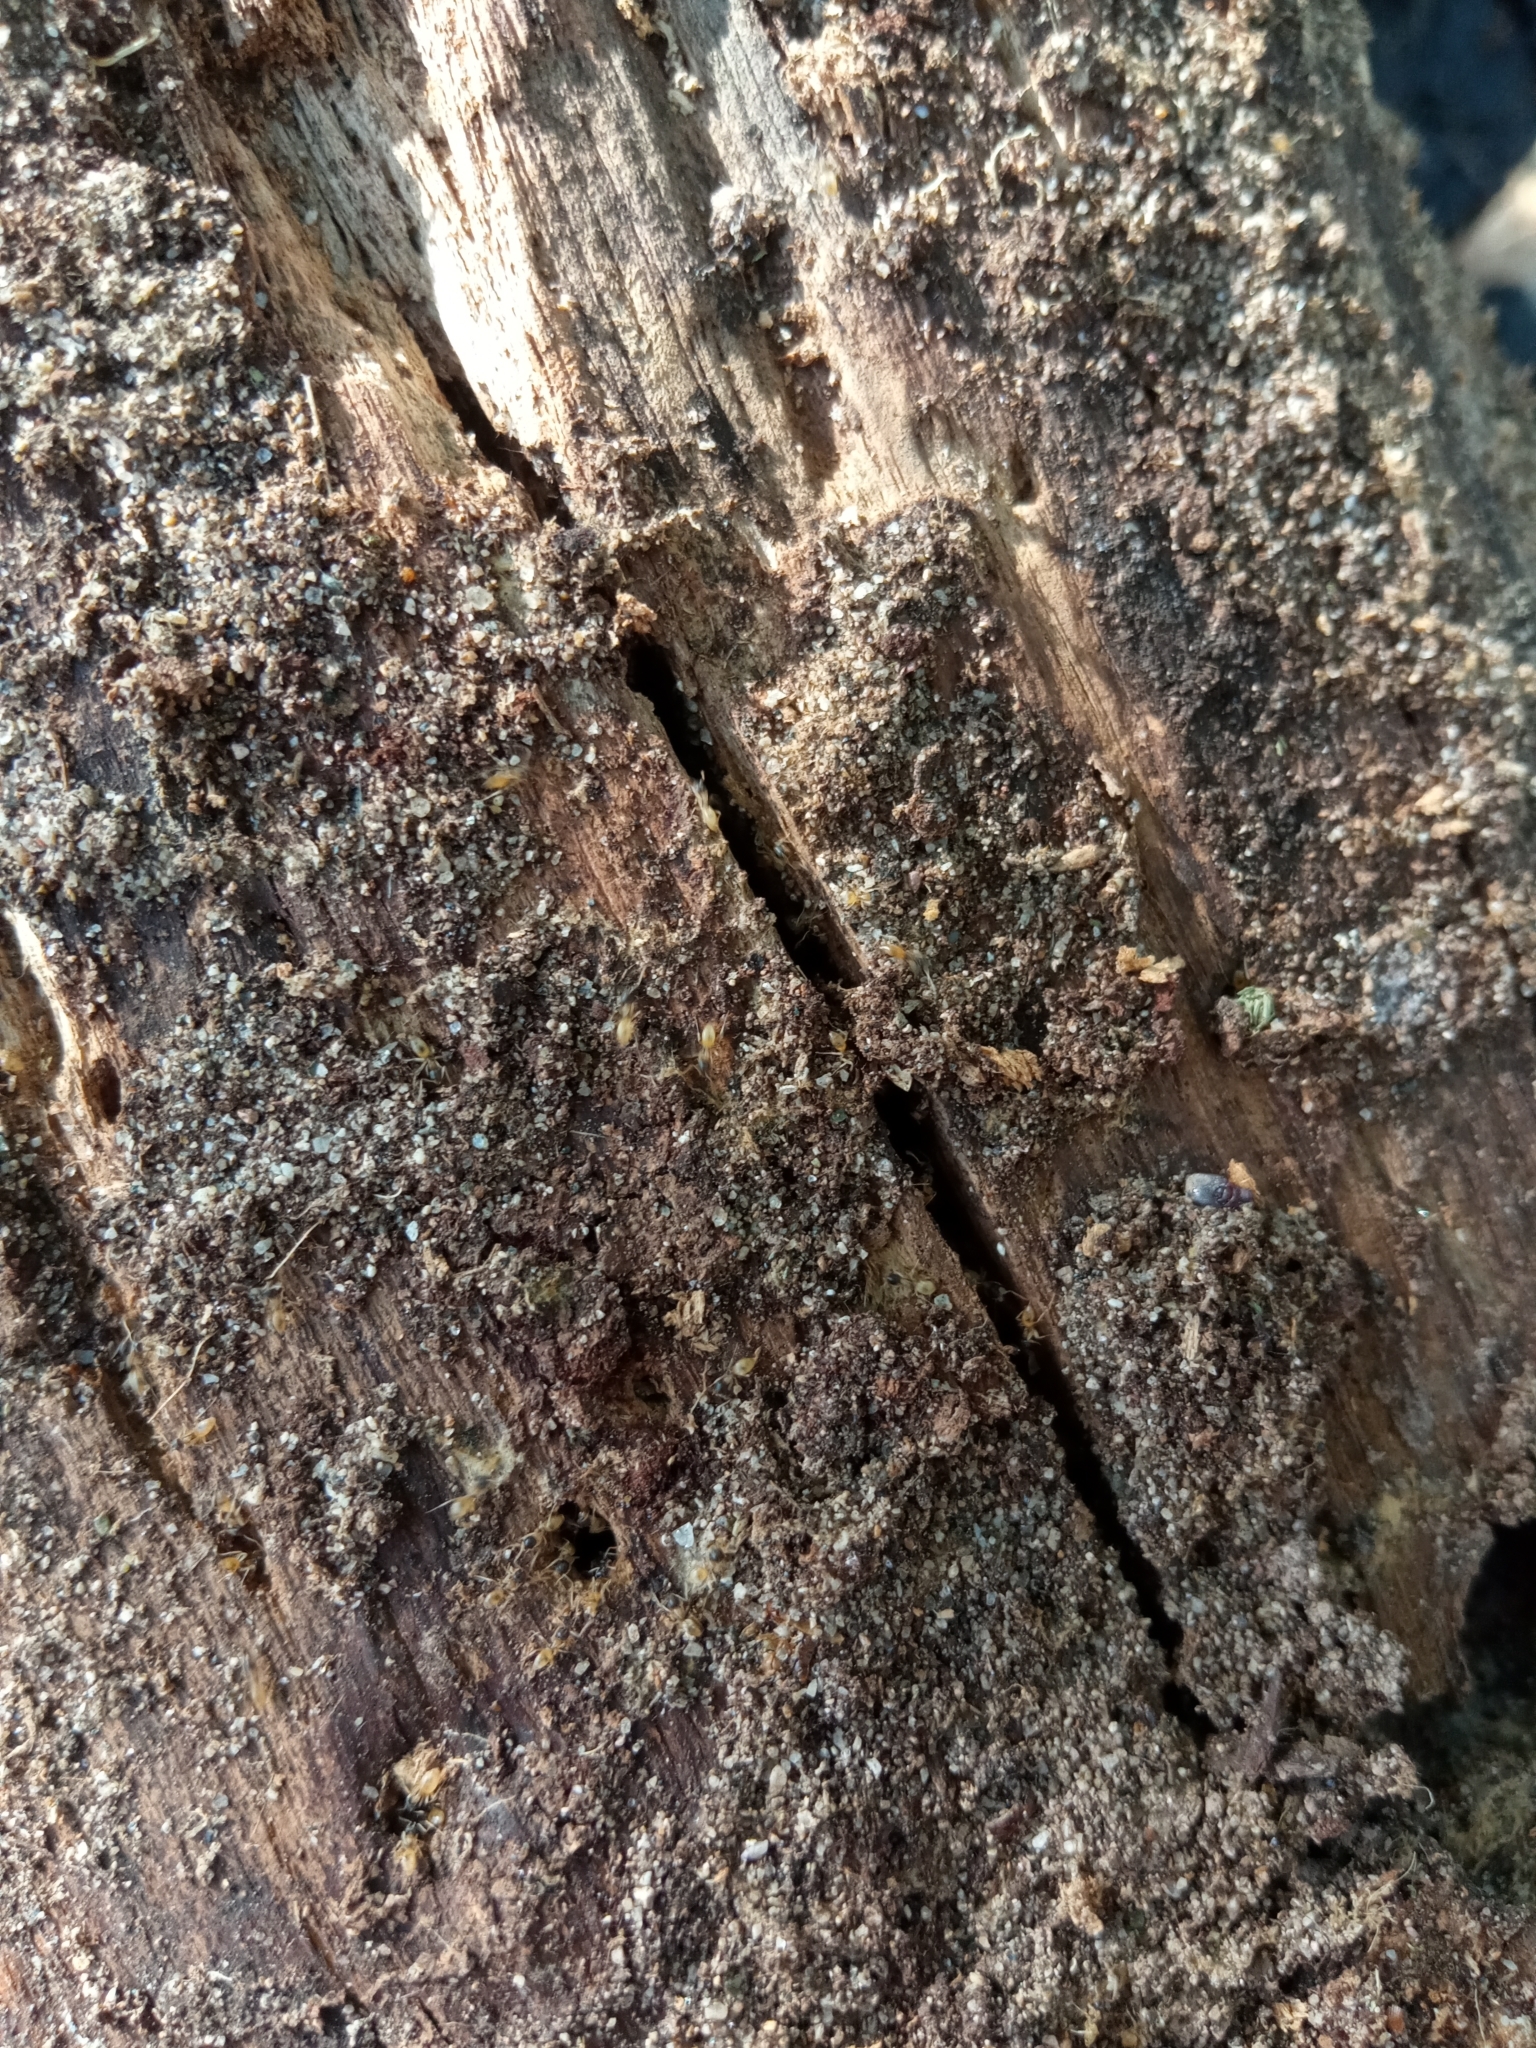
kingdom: Animalia
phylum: Arthropoda
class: Insecta
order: Hymenoptera
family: Formicidae
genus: Tapinoma
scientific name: Tapinoma melanocephalum
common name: Ghost ant
